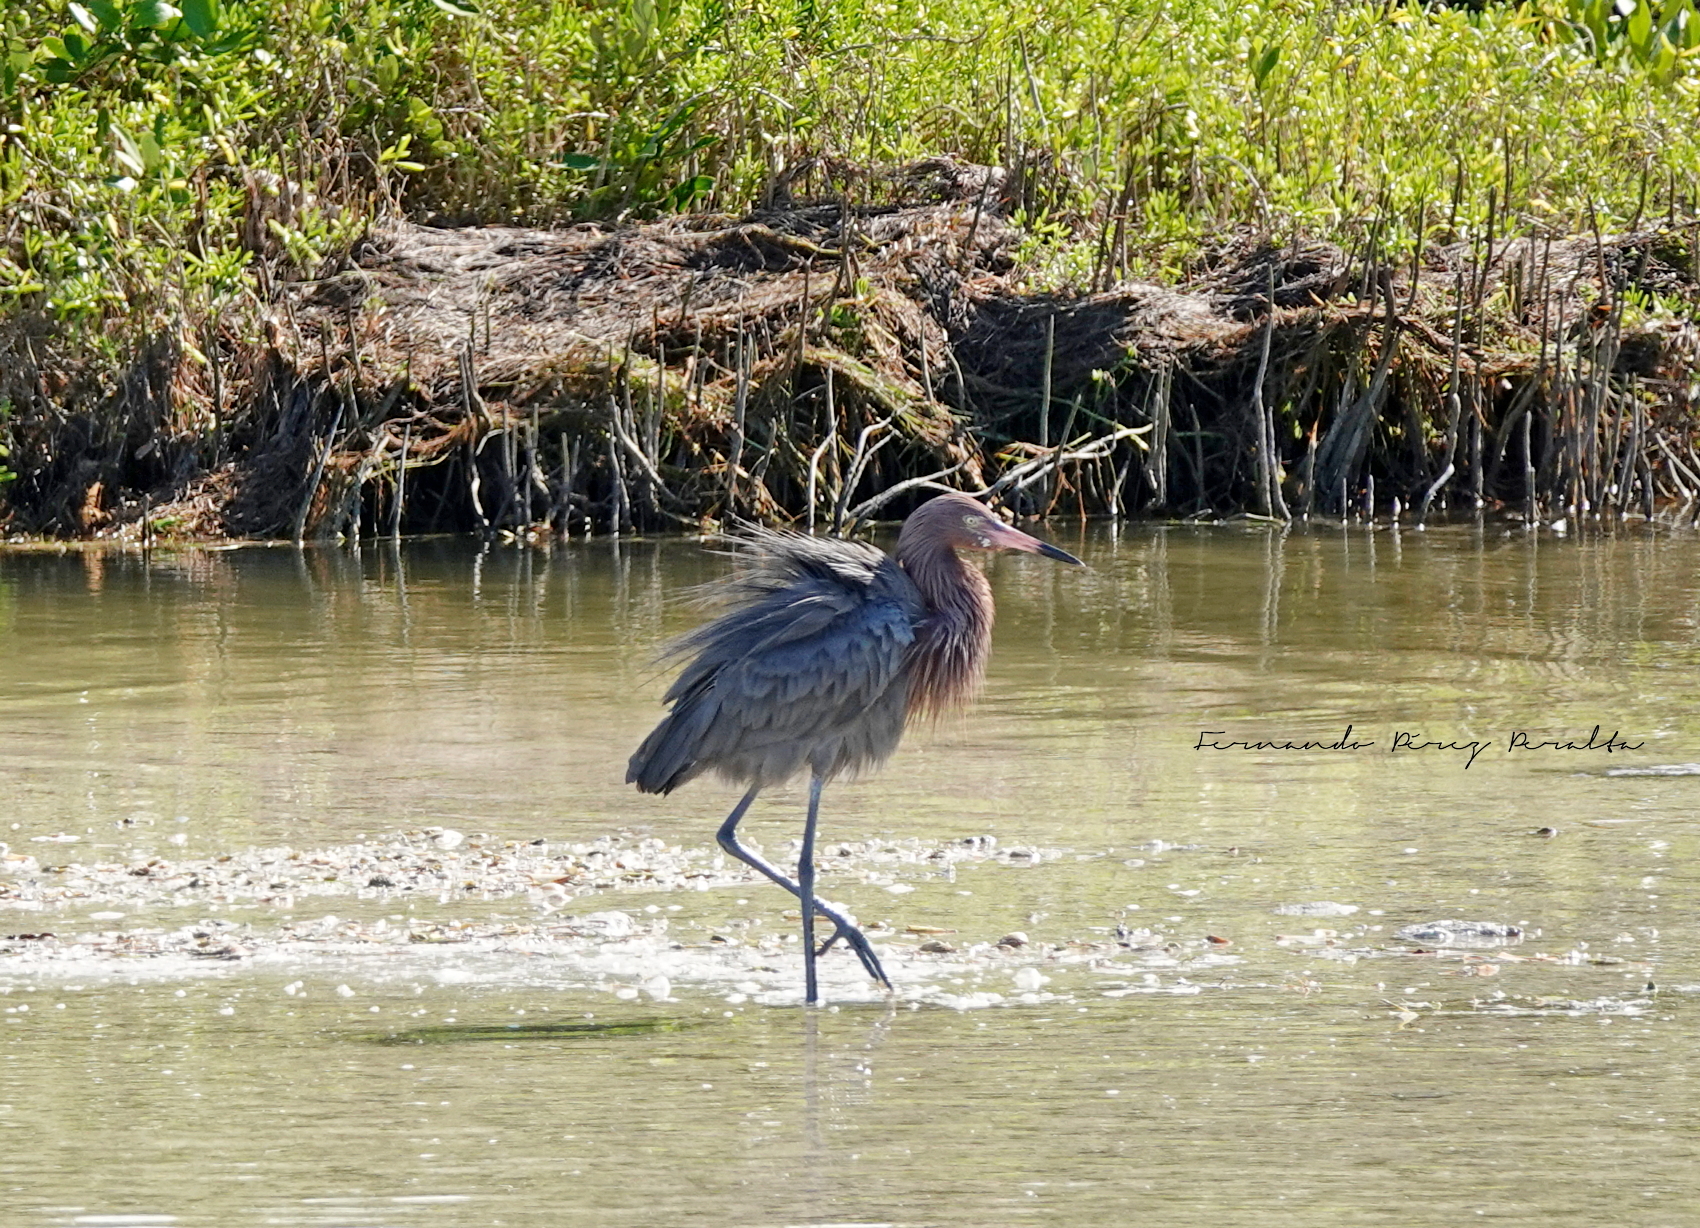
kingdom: Animalia
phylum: Chordata
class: Aves
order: Pelecaniformes
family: Ardeidae
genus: Egretta
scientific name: Egretta rufescens
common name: Reddish egret
